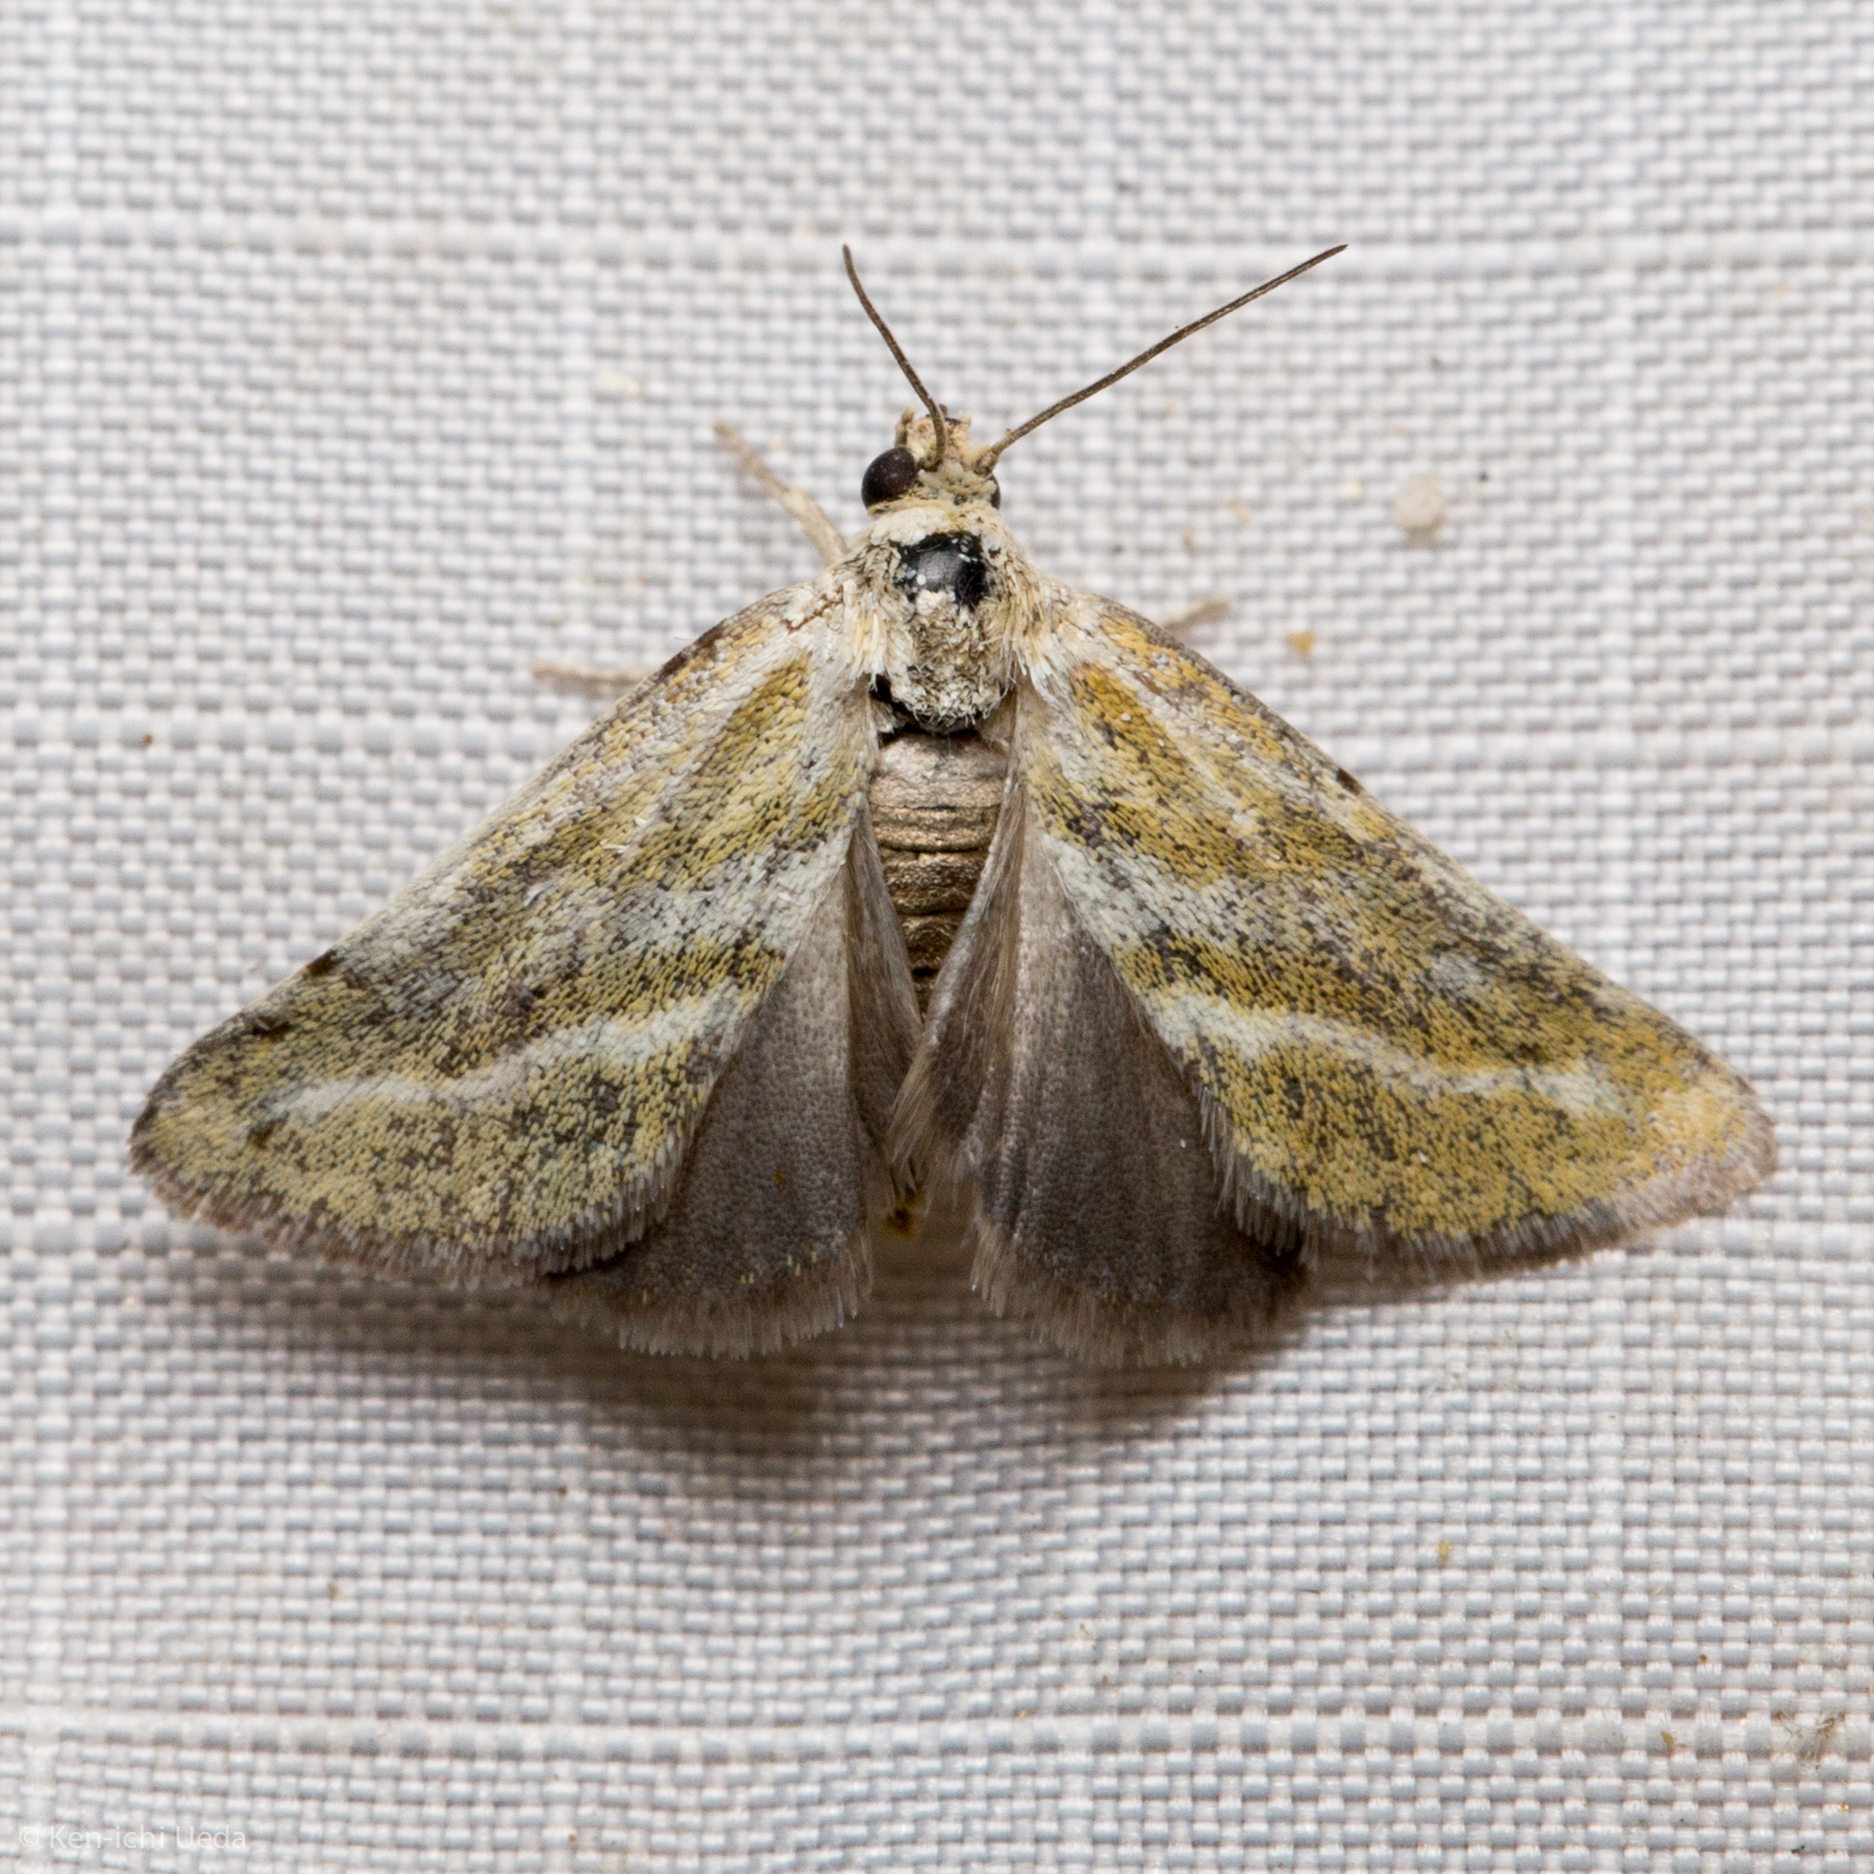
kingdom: Animalia
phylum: Arthropoda
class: Insecta
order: Lepidoptera
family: Noctuidae
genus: Lineostriastiria
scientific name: Lineostriastiria hutsoni
